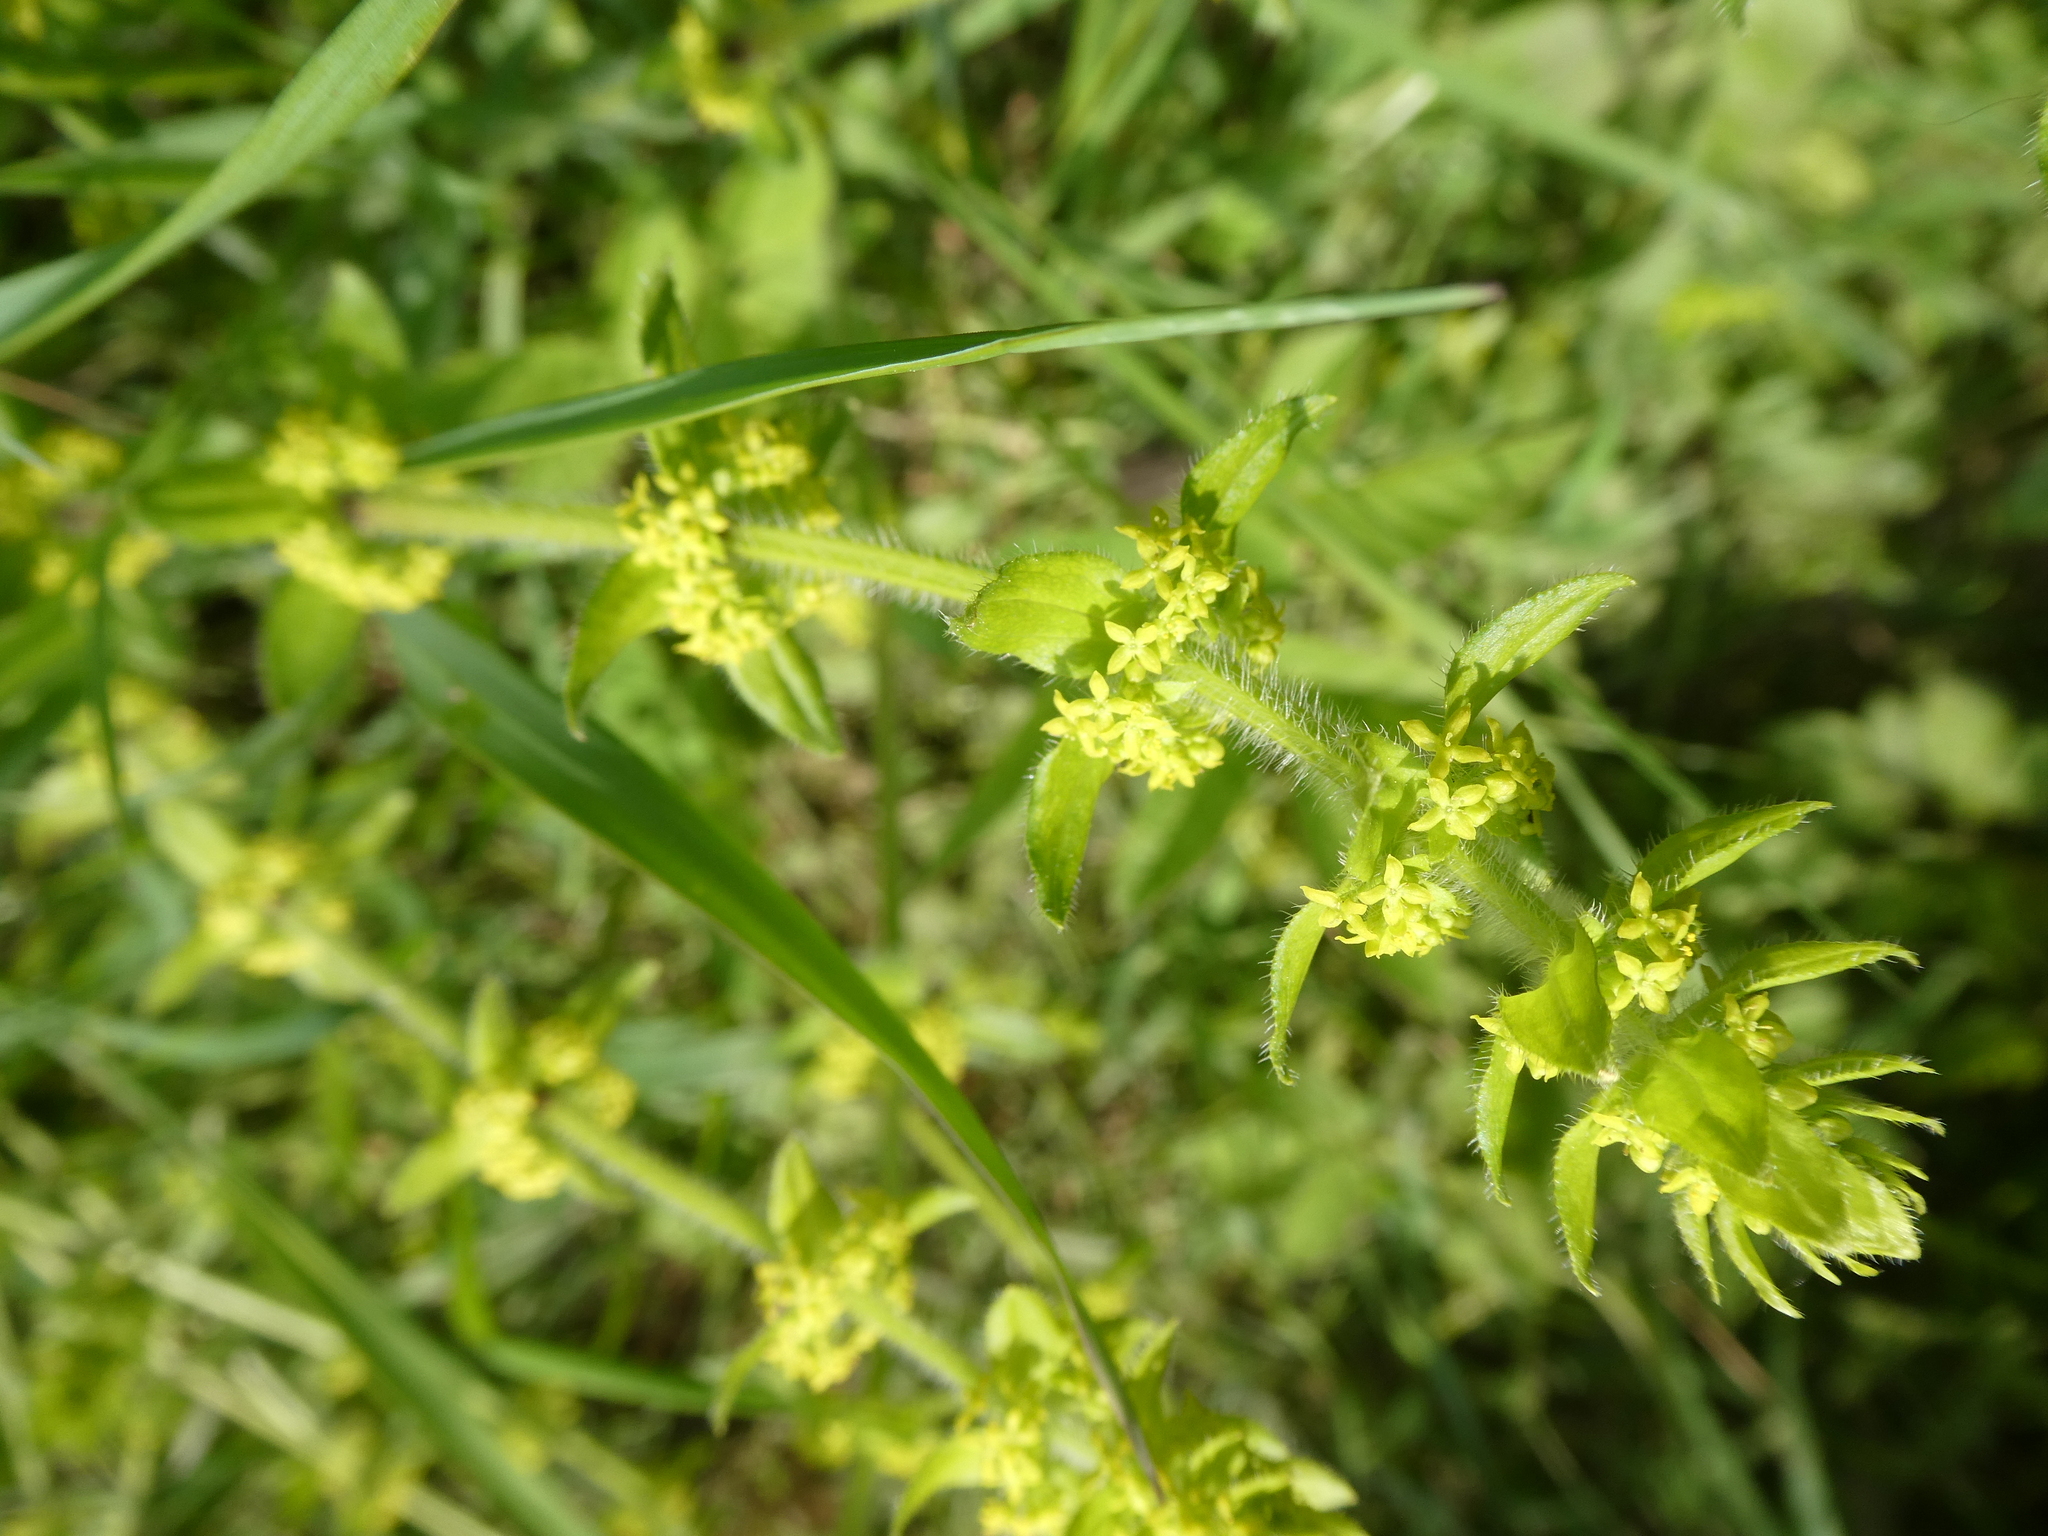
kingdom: Plantae
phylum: Tracheophyta
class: Magnoliopsida
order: Gentianales
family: Rubiaceae
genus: Cruciata
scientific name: Cruciata laevipes
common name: Crosswort
